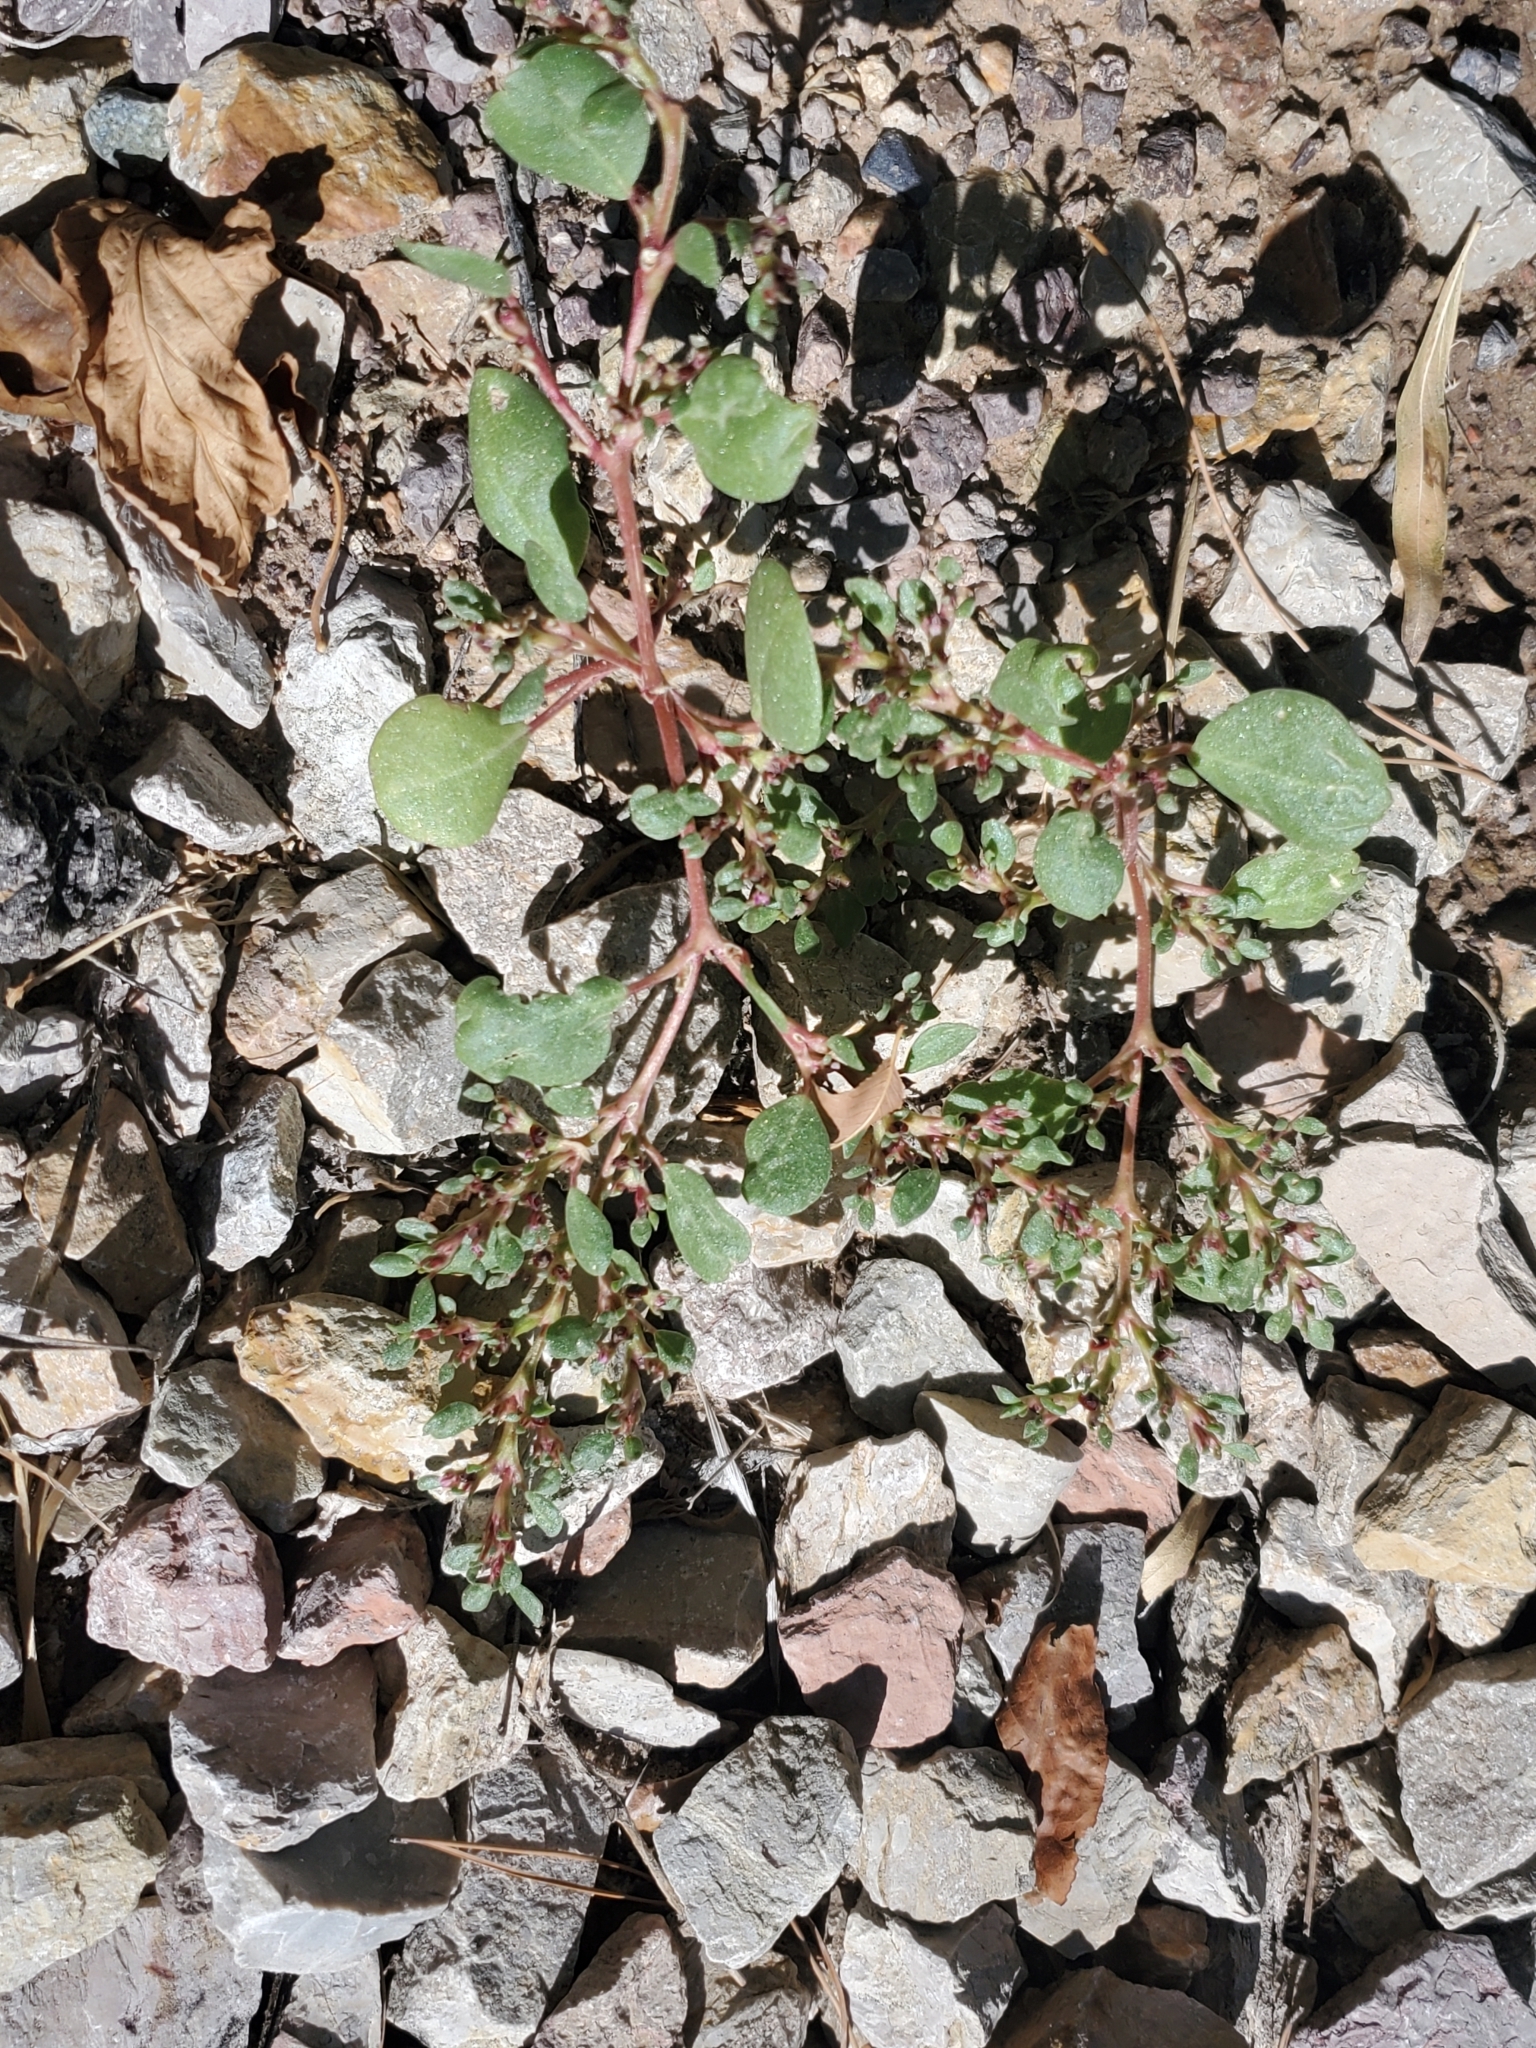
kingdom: Plantae
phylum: Tracheophyta
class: Magnoliopsida
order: Caryophyllales
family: Aizoaceae
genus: Trianthema
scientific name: Trianthema portulacastrum
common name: Desert horsepurslane
